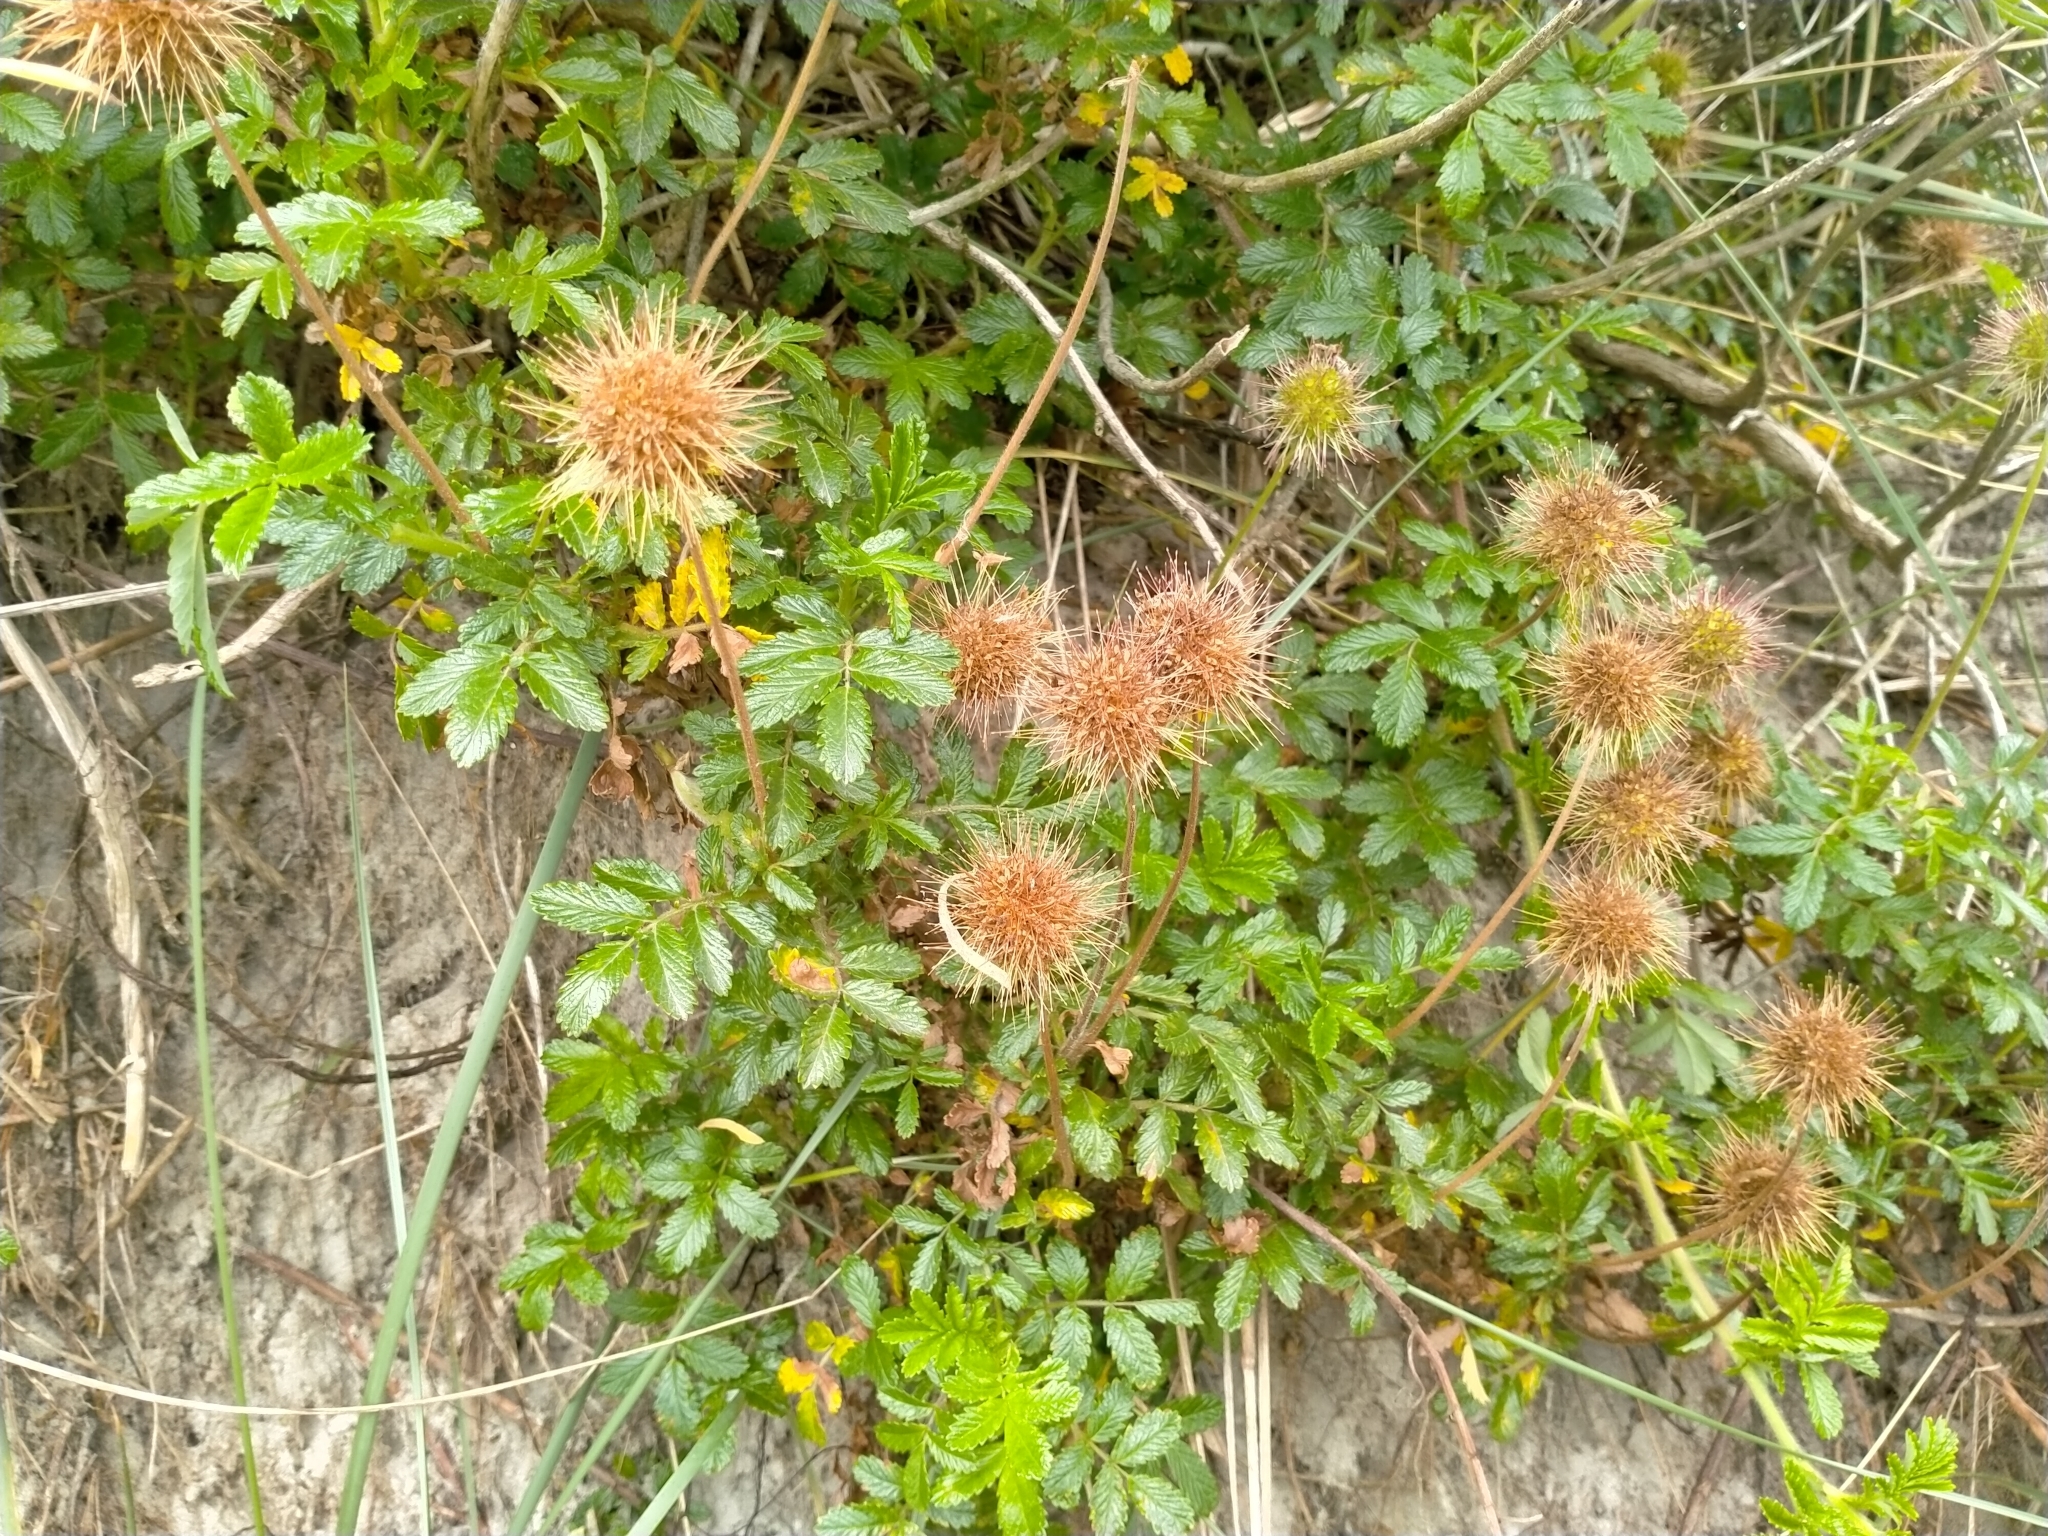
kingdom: Plantae
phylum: Tracheophyta
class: Magnoliopsida
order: Rosales
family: Rosaceae
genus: Acaena
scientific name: Acaena pallida
